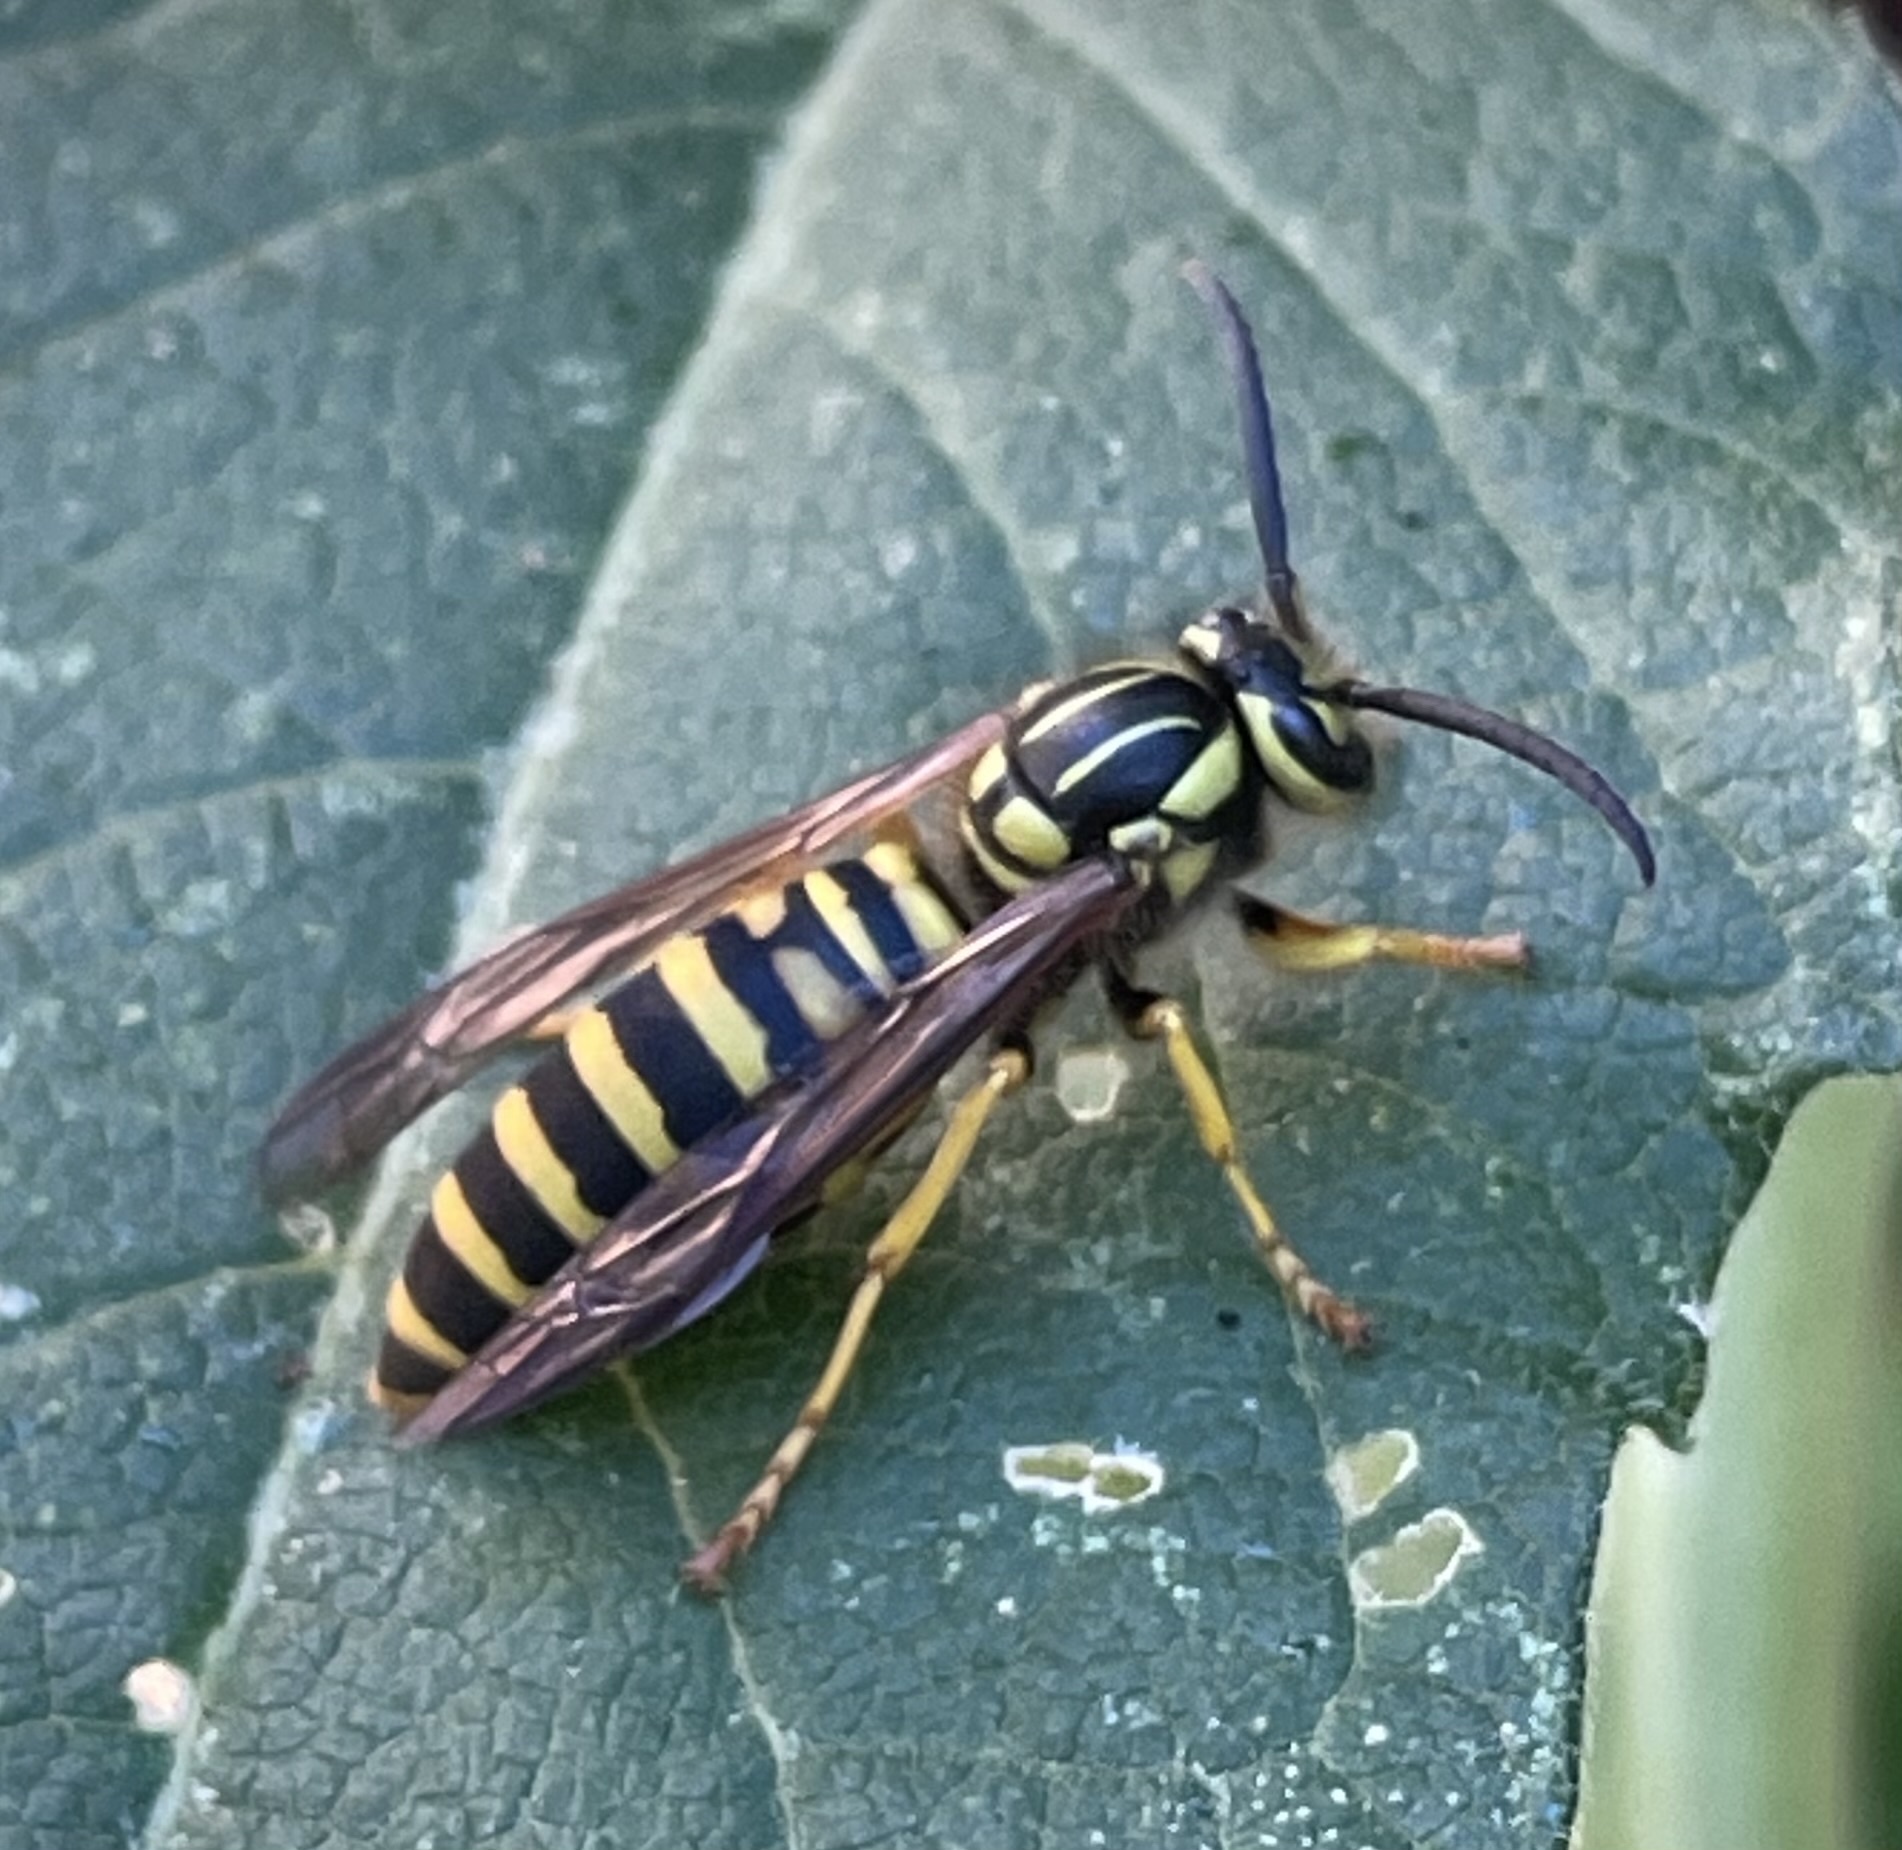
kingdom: Animalia
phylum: Arthropoda
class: Insecta
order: Hymenoptera
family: Vespidae
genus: Vespula
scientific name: Vespula squamosa
